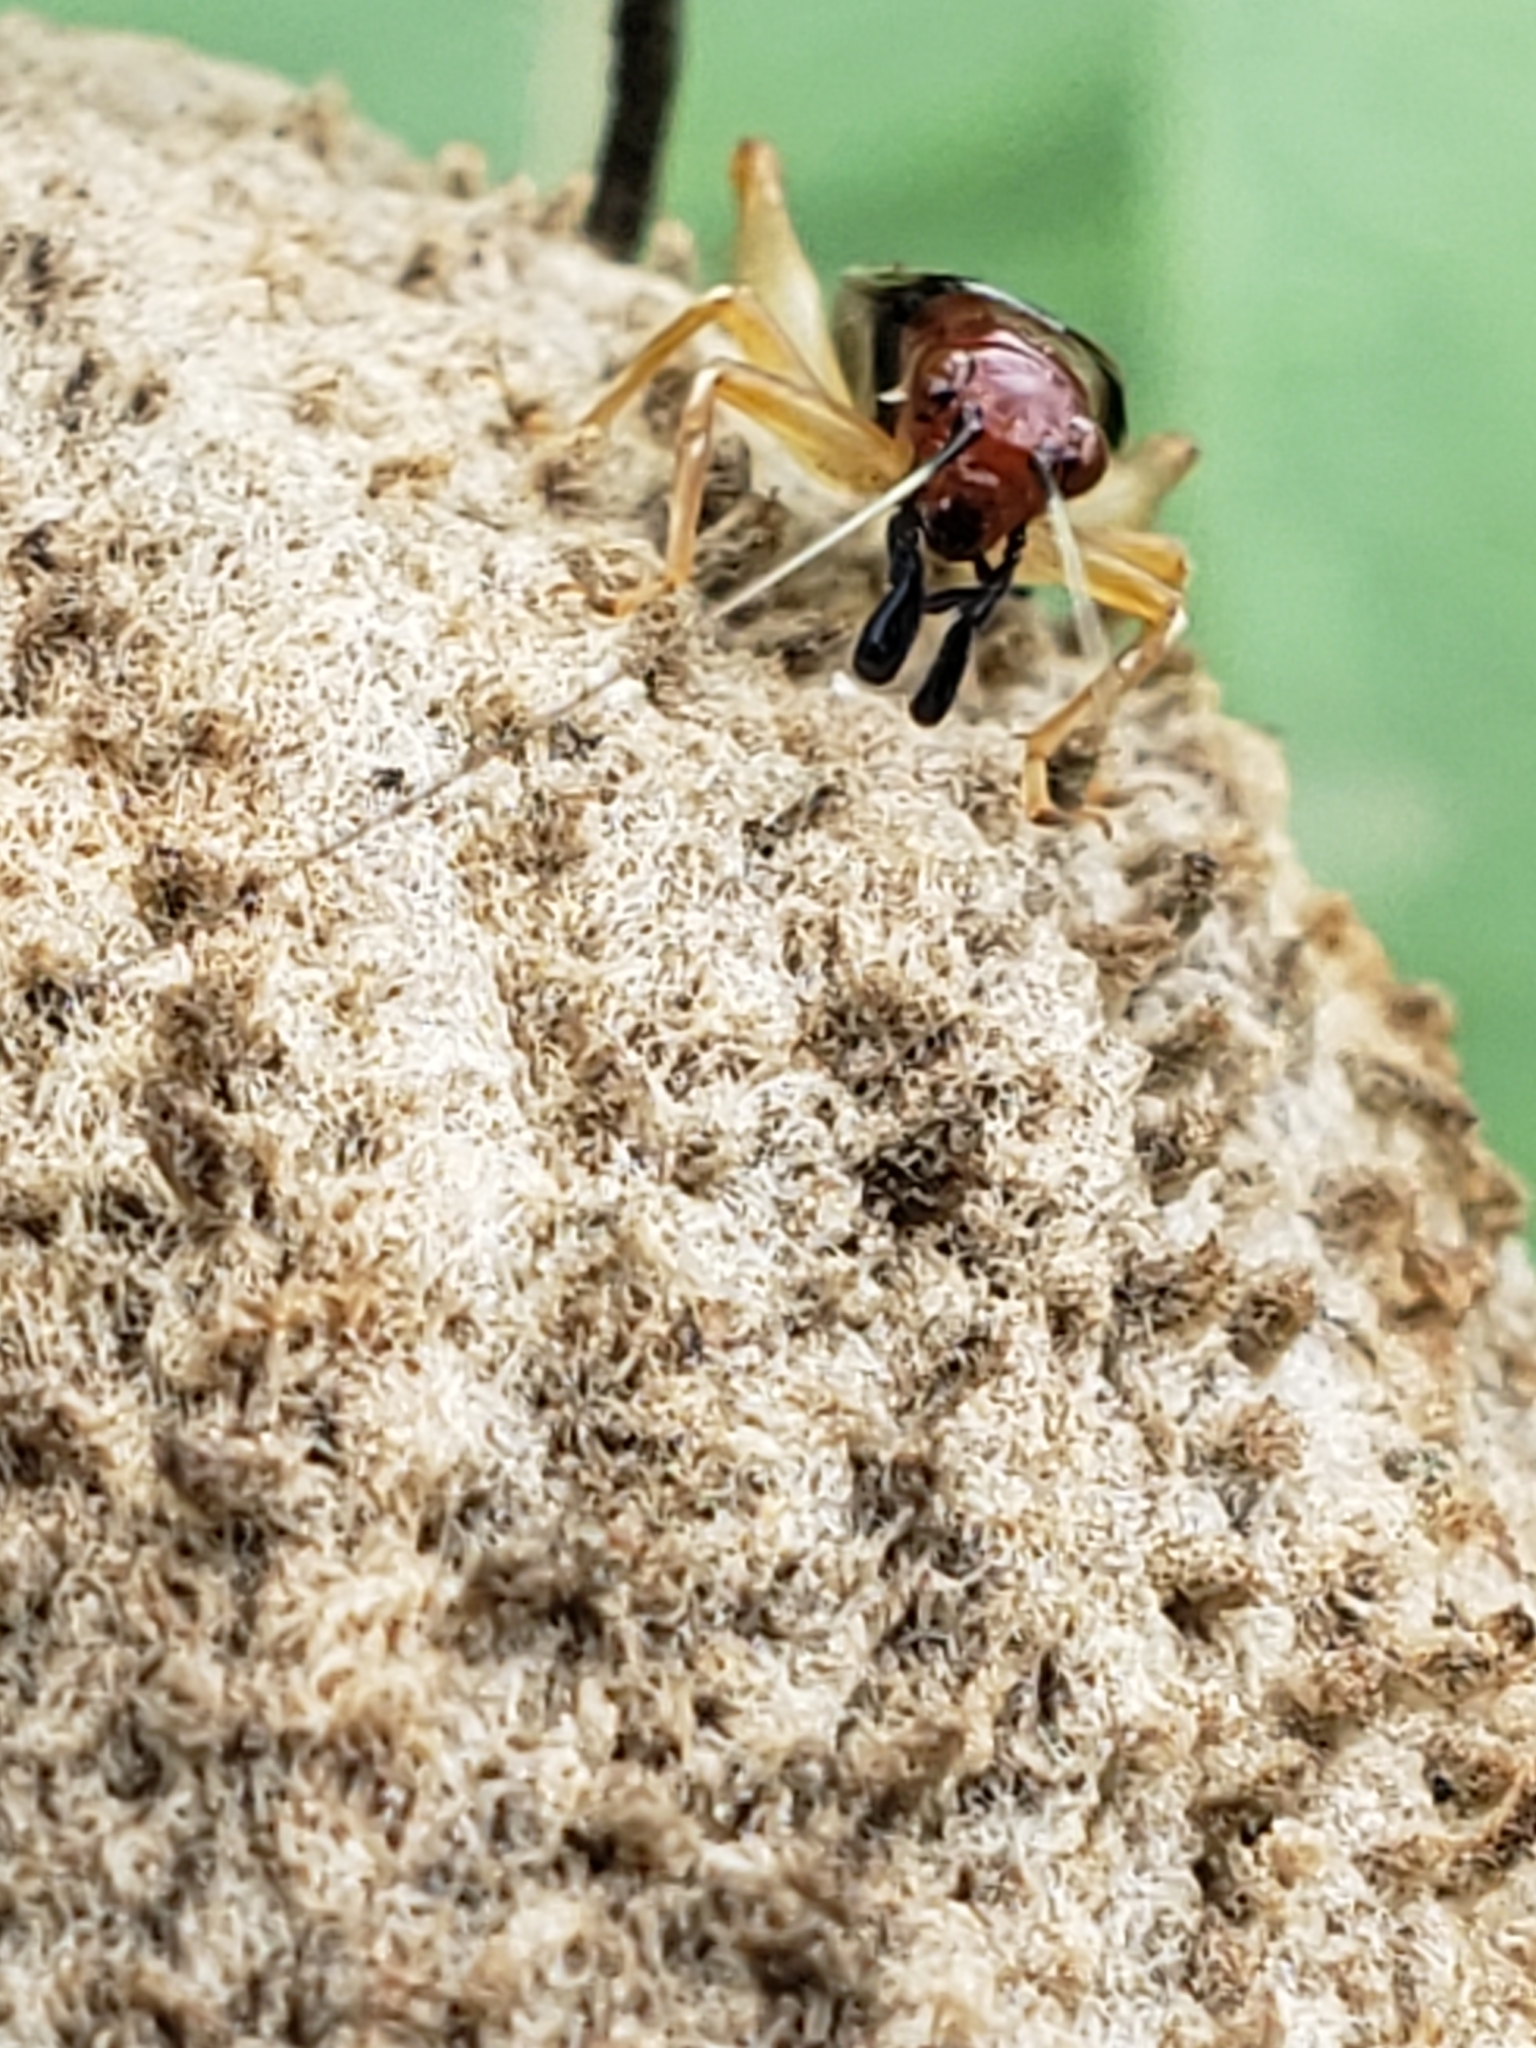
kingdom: Animalia
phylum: Arthropoda
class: Insecta
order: Orthoptera
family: Trigonidiidae
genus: Phyllopalpus
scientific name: Phyllopalpus pulchellus
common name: Handsome trig
